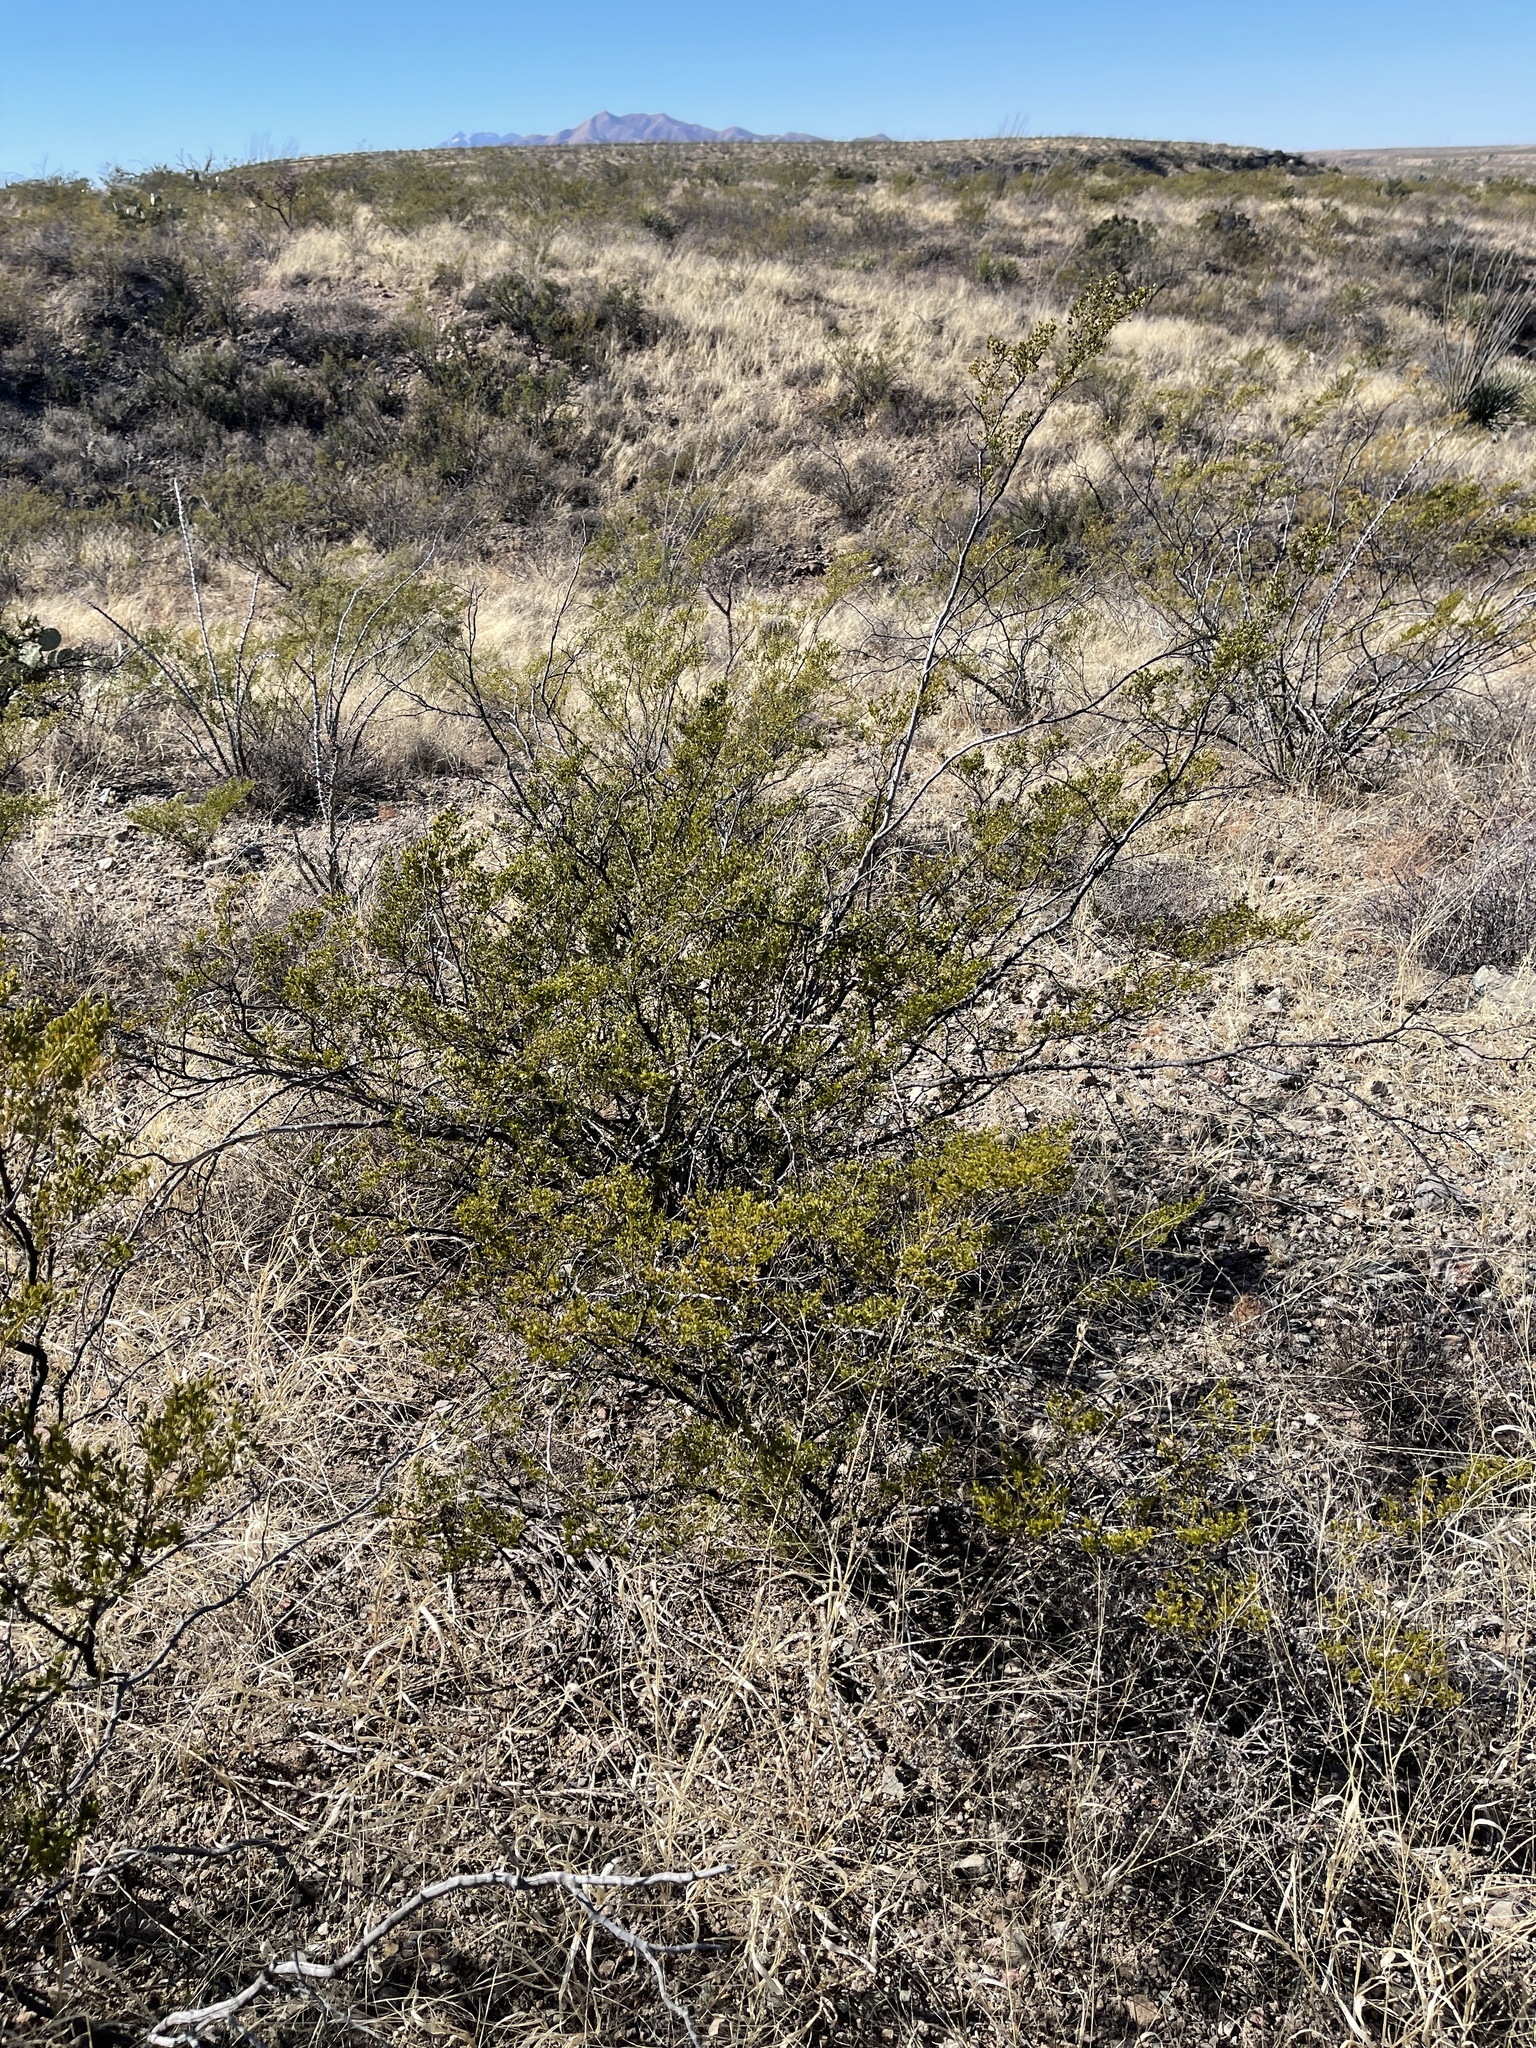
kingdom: Plantae
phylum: Tracheophyta
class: Magnoliopsida
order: Zygophyllales
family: Zygophyllaceae
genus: Larrea
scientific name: Larrea tridentata
